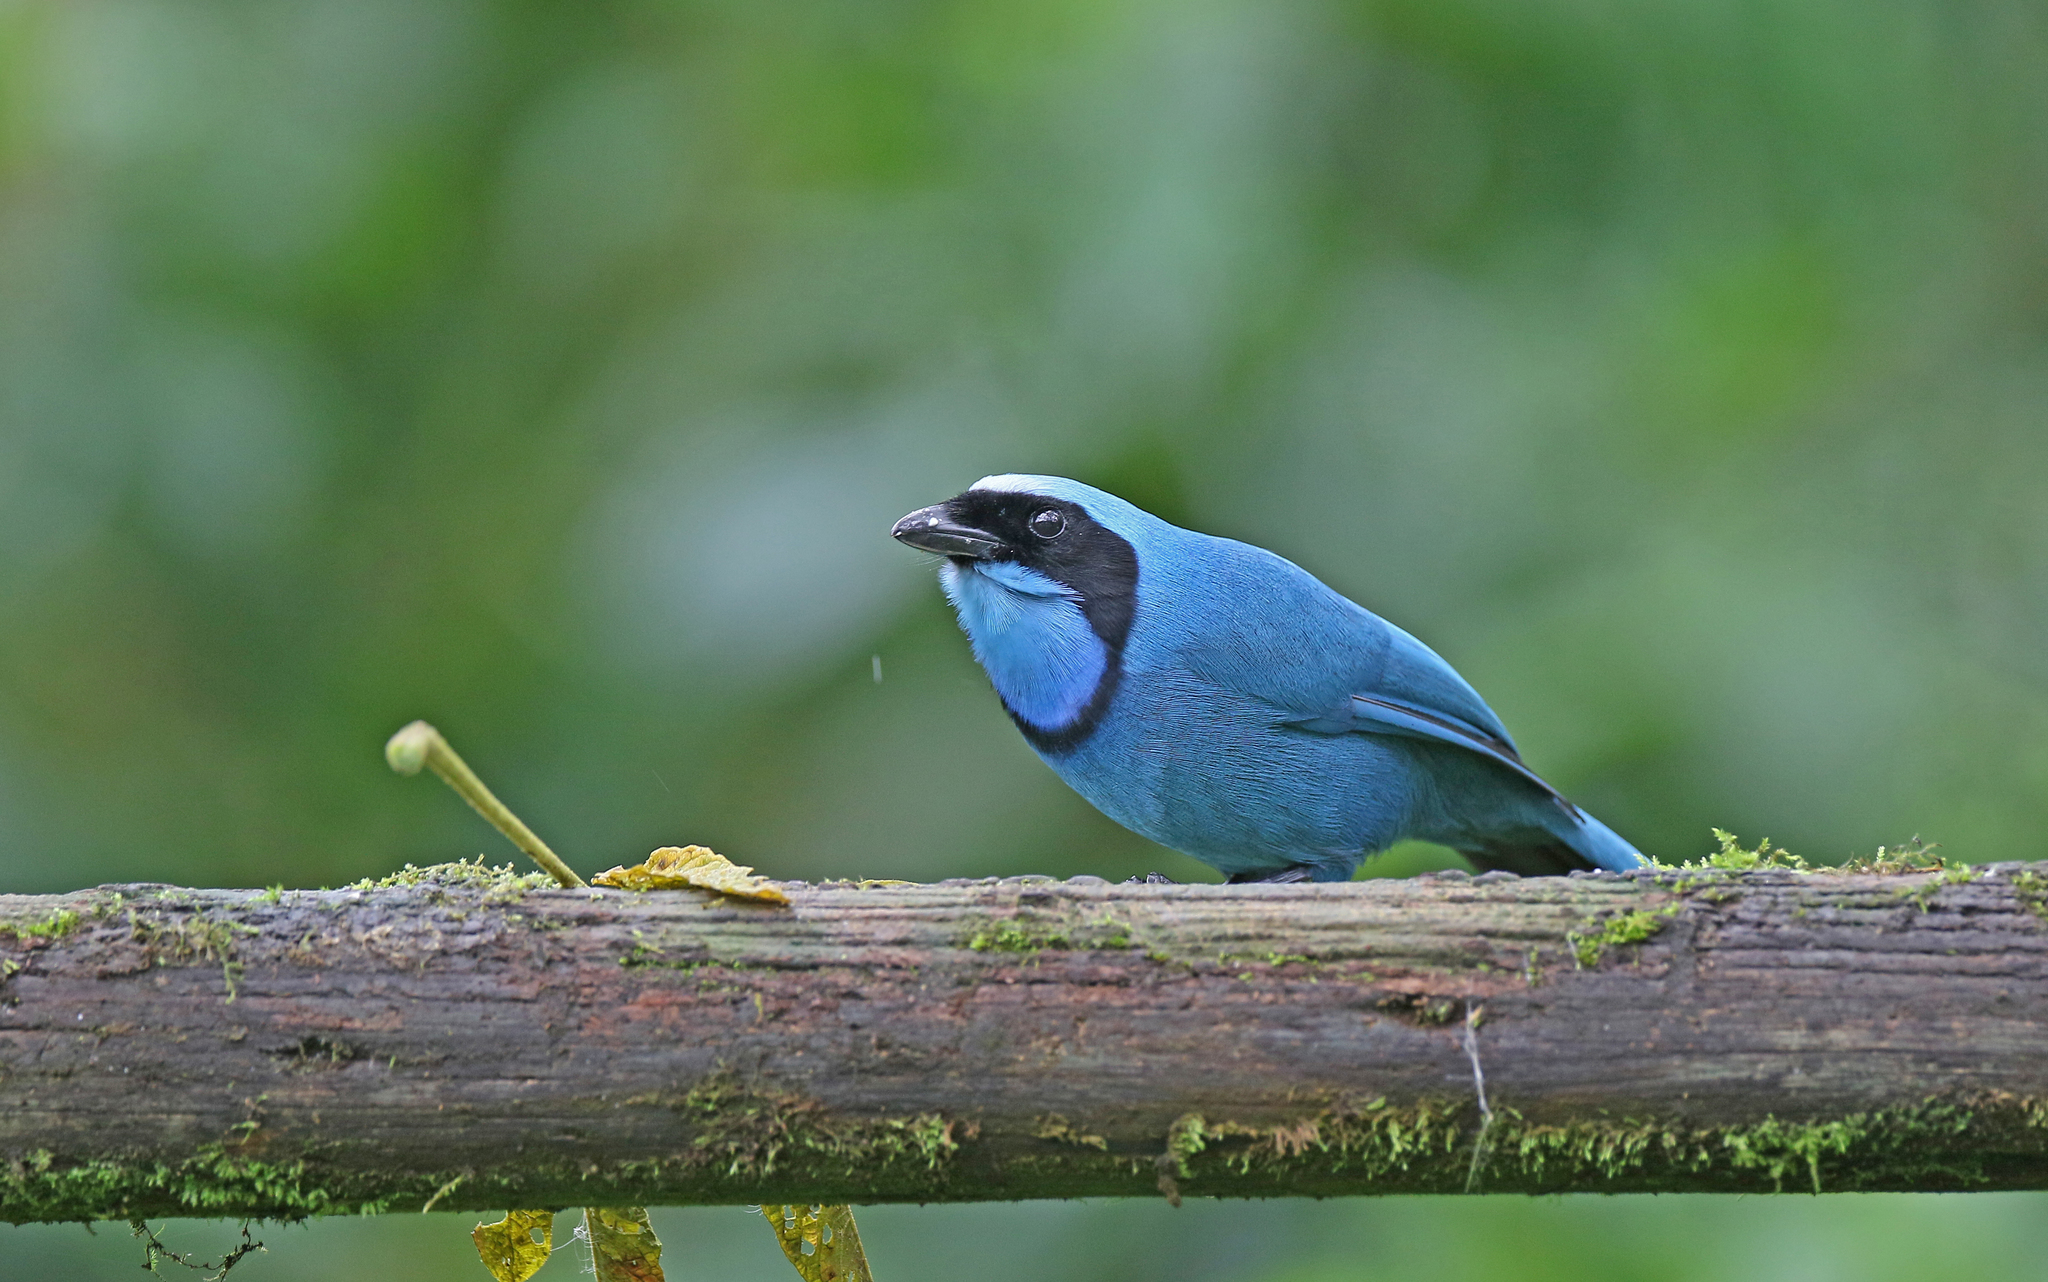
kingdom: Animalia
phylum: Chordata
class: Aves
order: Passeriformes
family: Corvidae
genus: Cyanolyca
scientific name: Cyanolyca turcosa
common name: Turquoise jay
